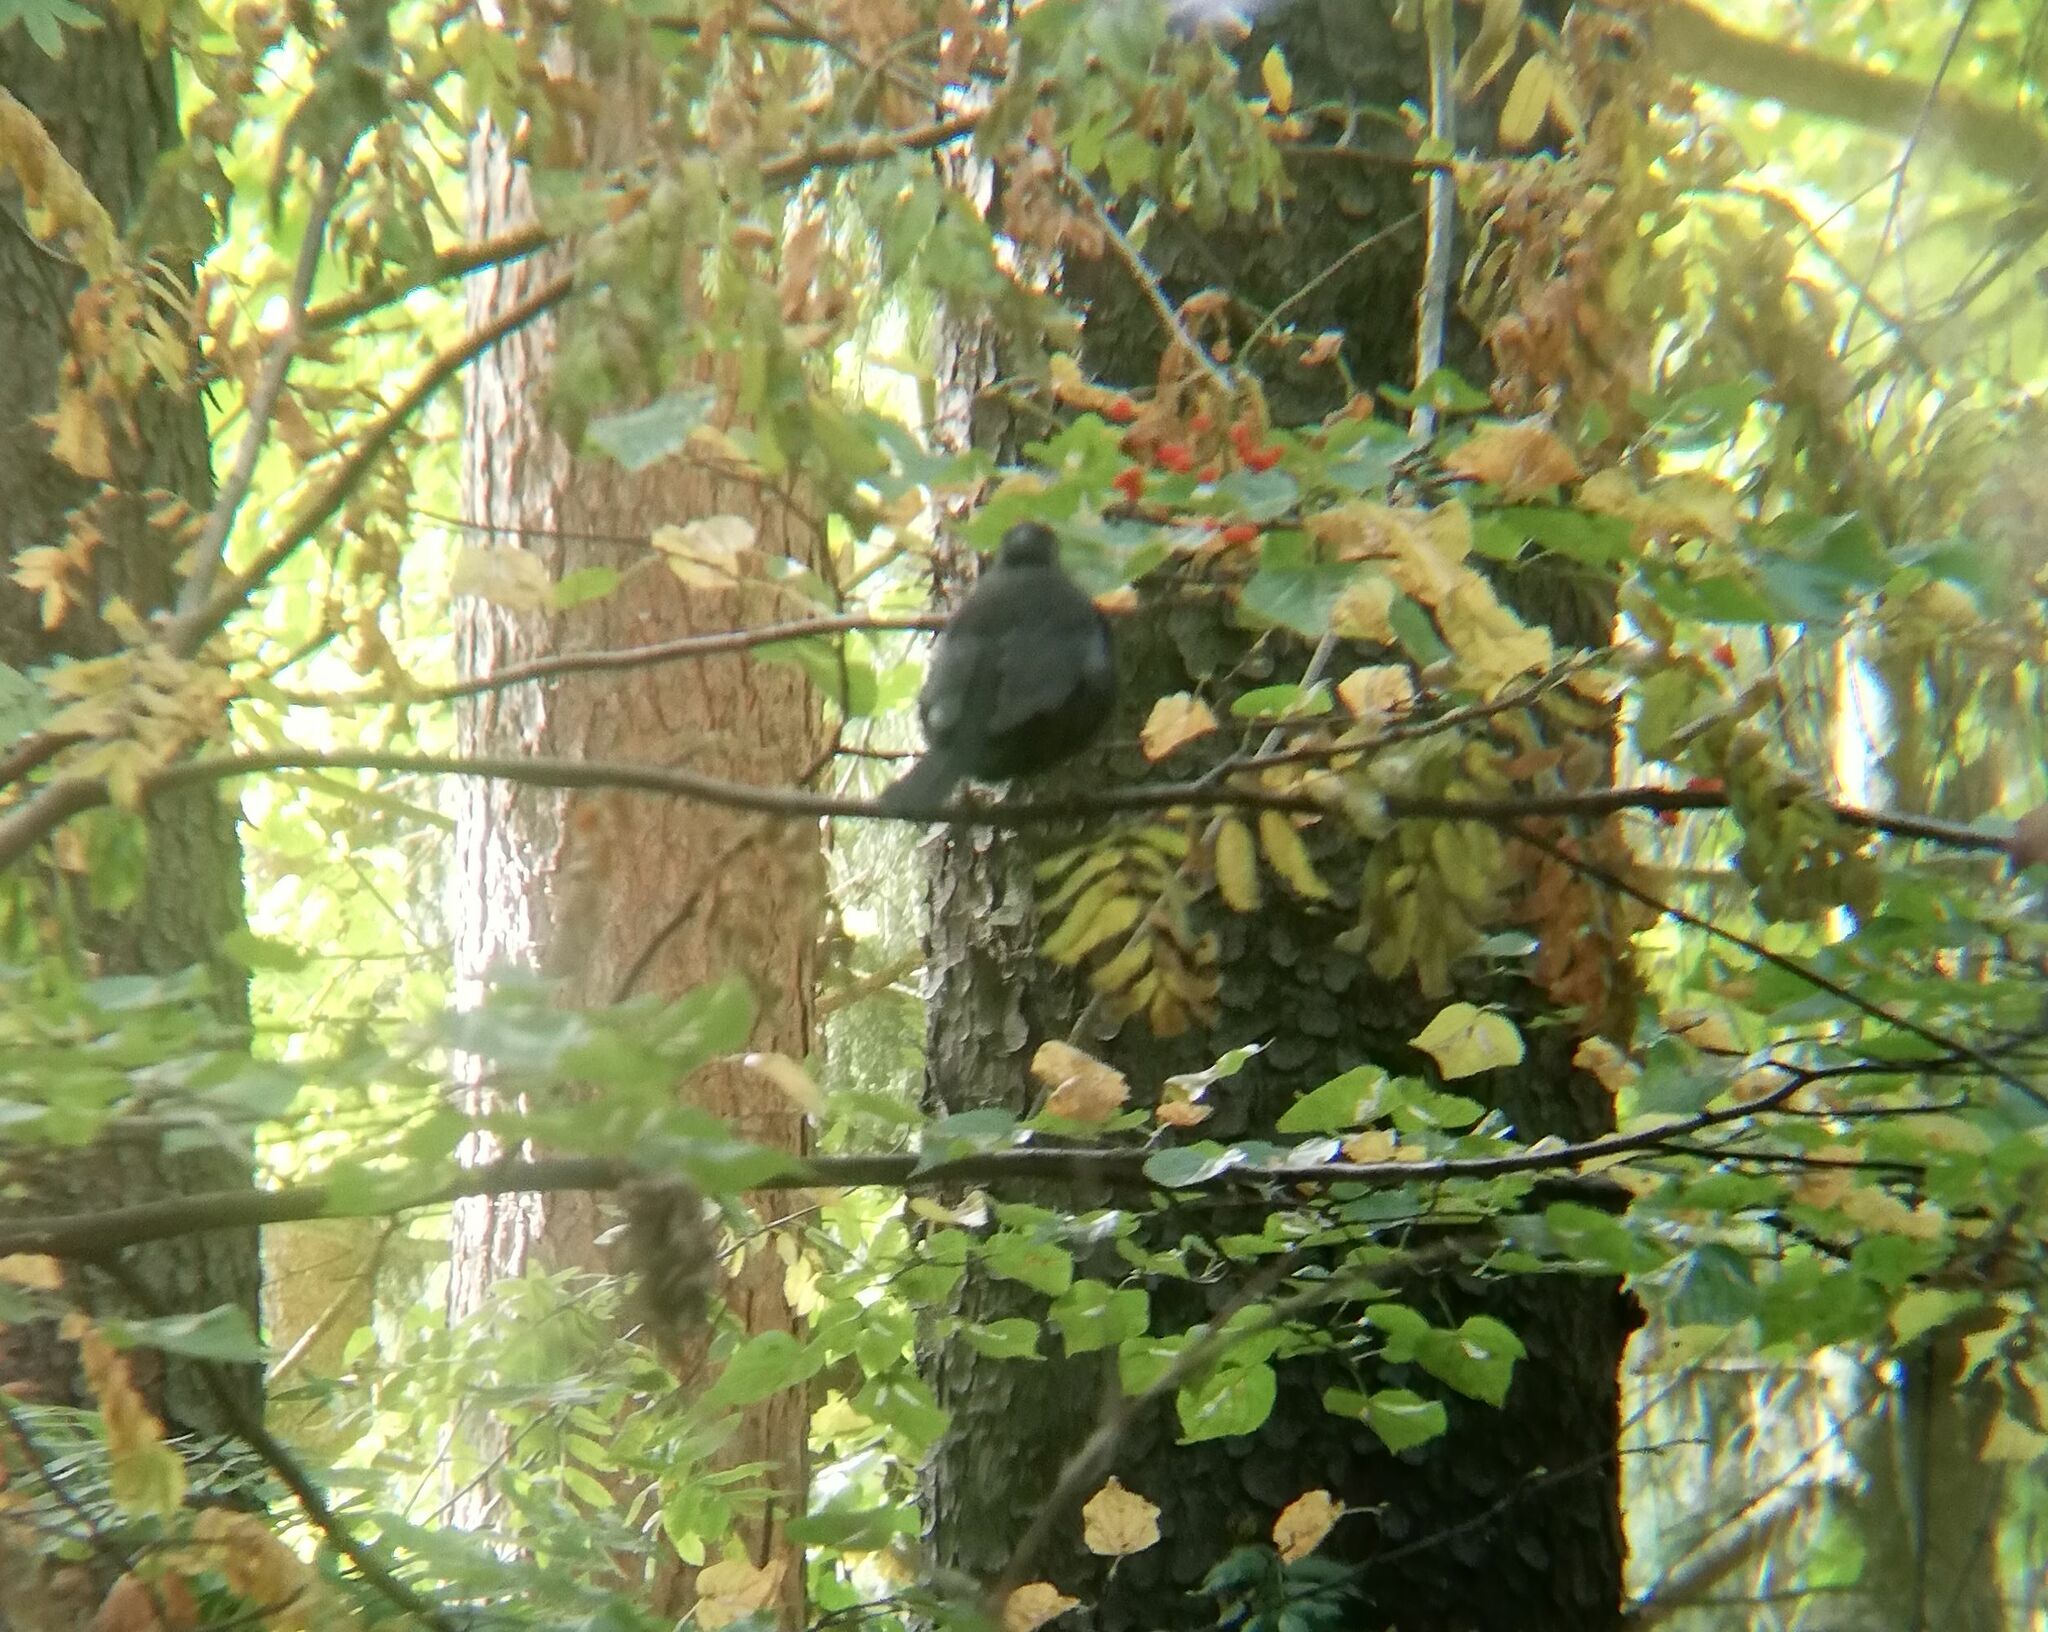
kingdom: Animalia
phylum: Chordata
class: Aves
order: Passeriformes
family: Turdidae
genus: Turdus
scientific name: Turdus merula
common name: Common blackbird
